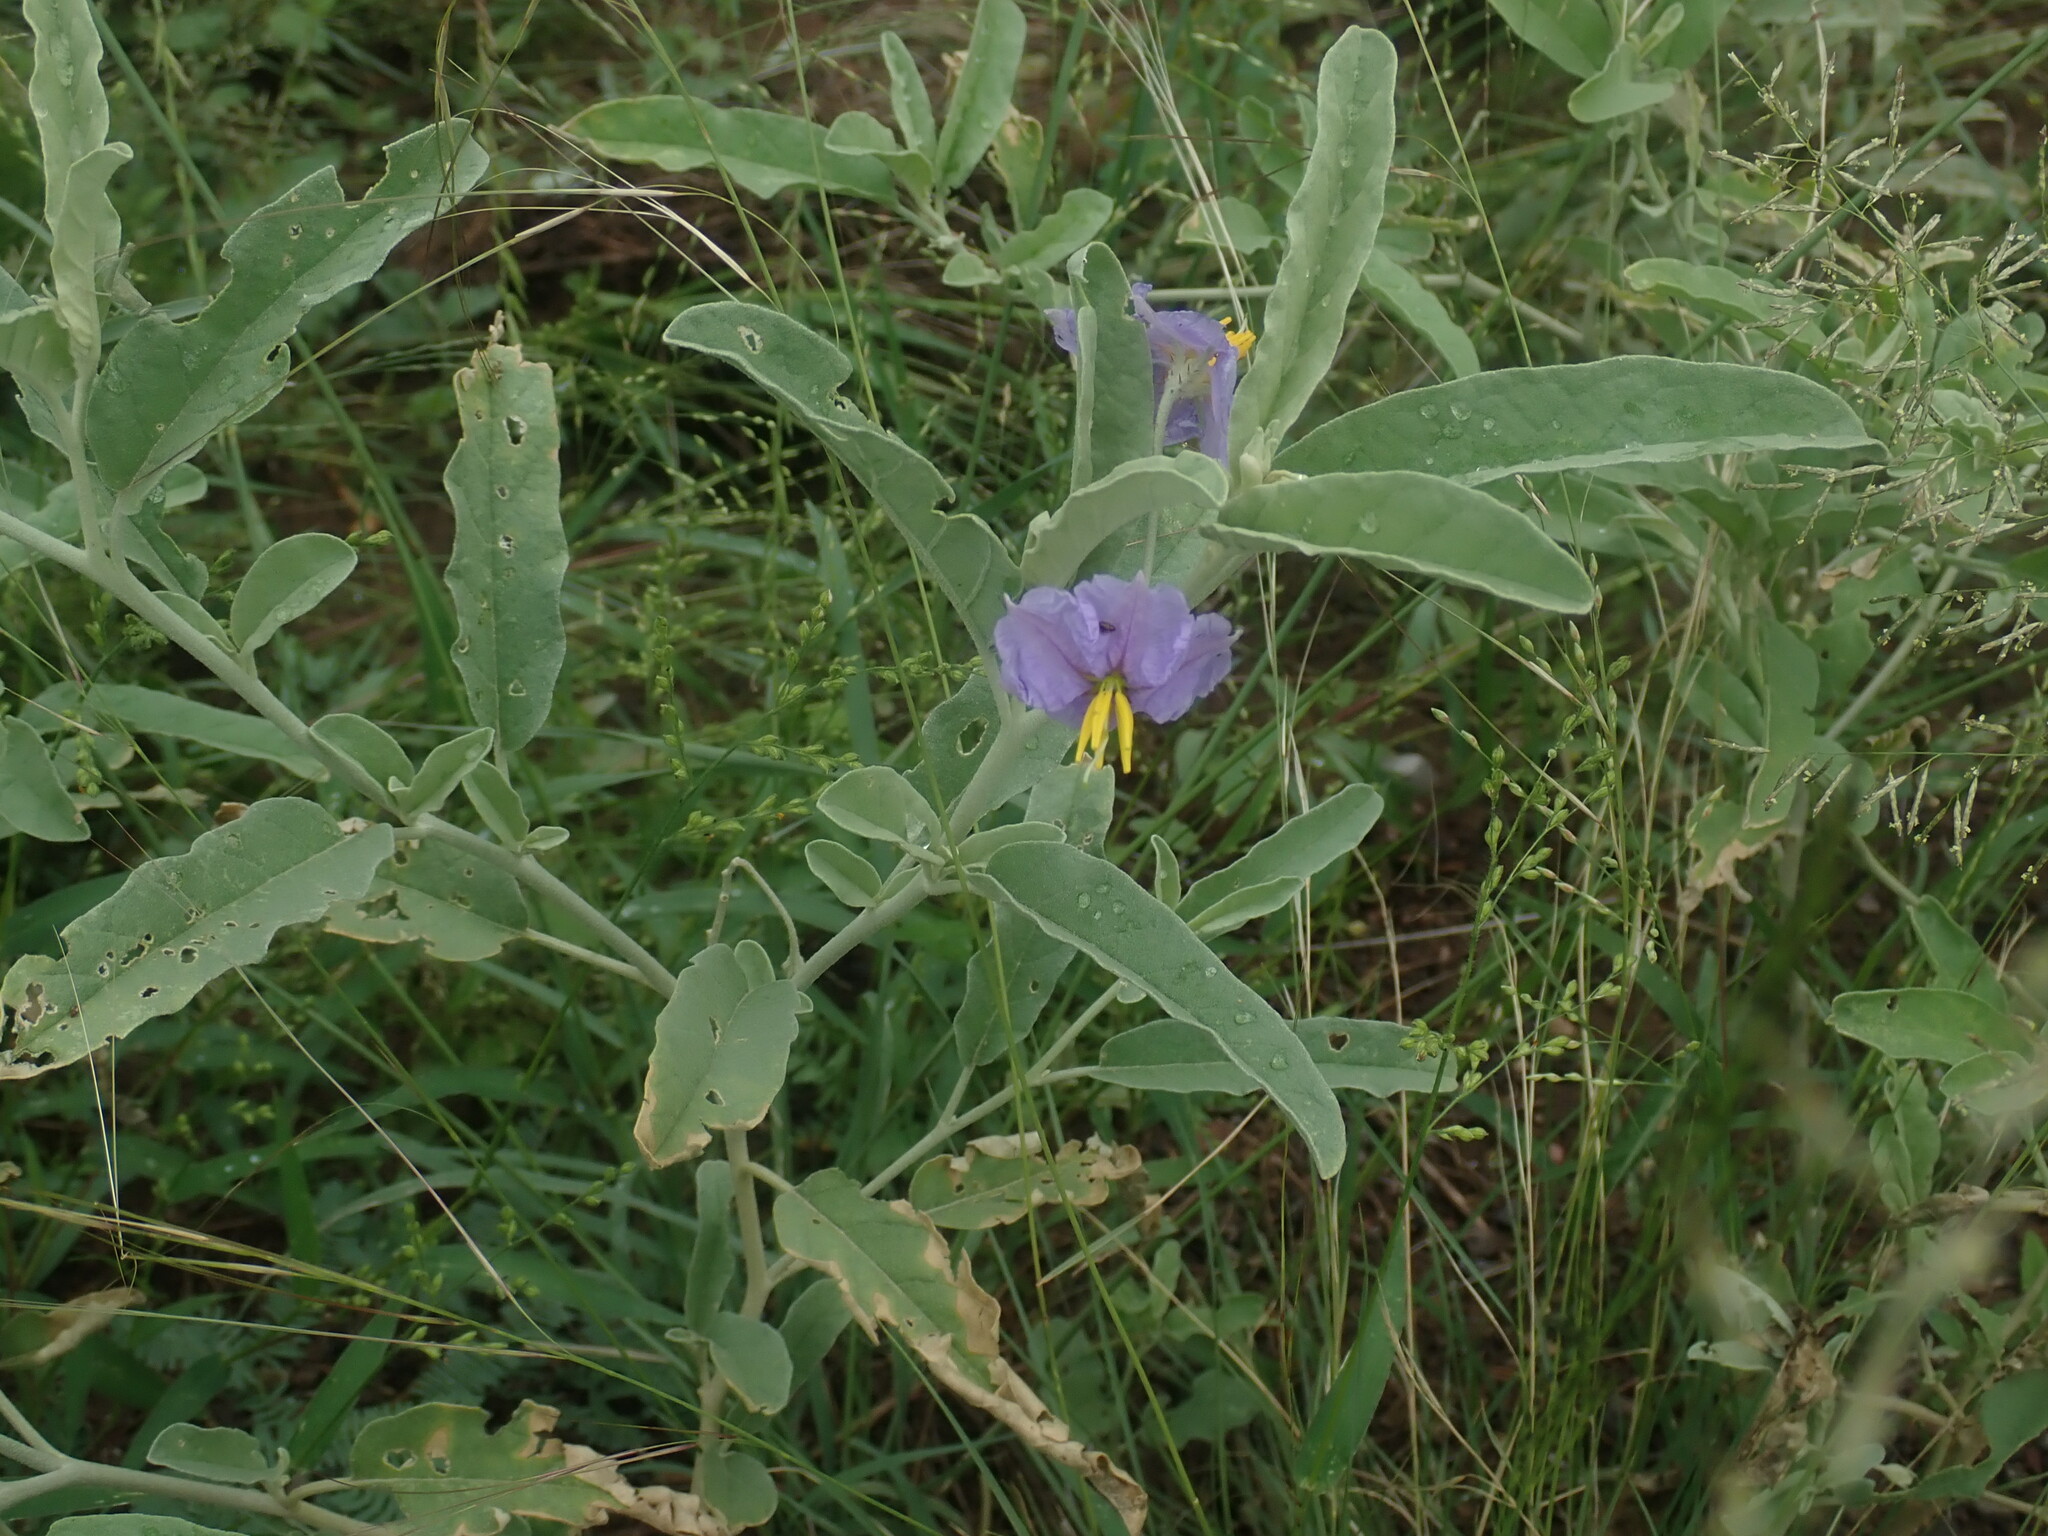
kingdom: Plantae
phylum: Tracheophyta
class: Magnoliopsida
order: Solanales
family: Solanaceae
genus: Solanum
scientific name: Solanum elaeagnifolium
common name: Silverleaf nightshade
